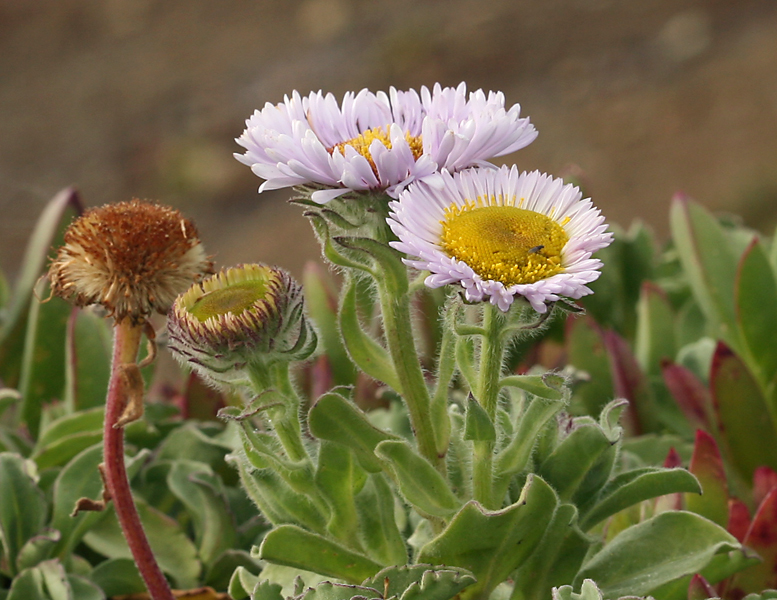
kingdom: Plantae
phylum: Tracheophyta
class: Magnoliopsida
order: Asterales
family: Asteraceae
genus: Erigeron
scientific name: Erigeron glaucus
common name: Seaside daisy
